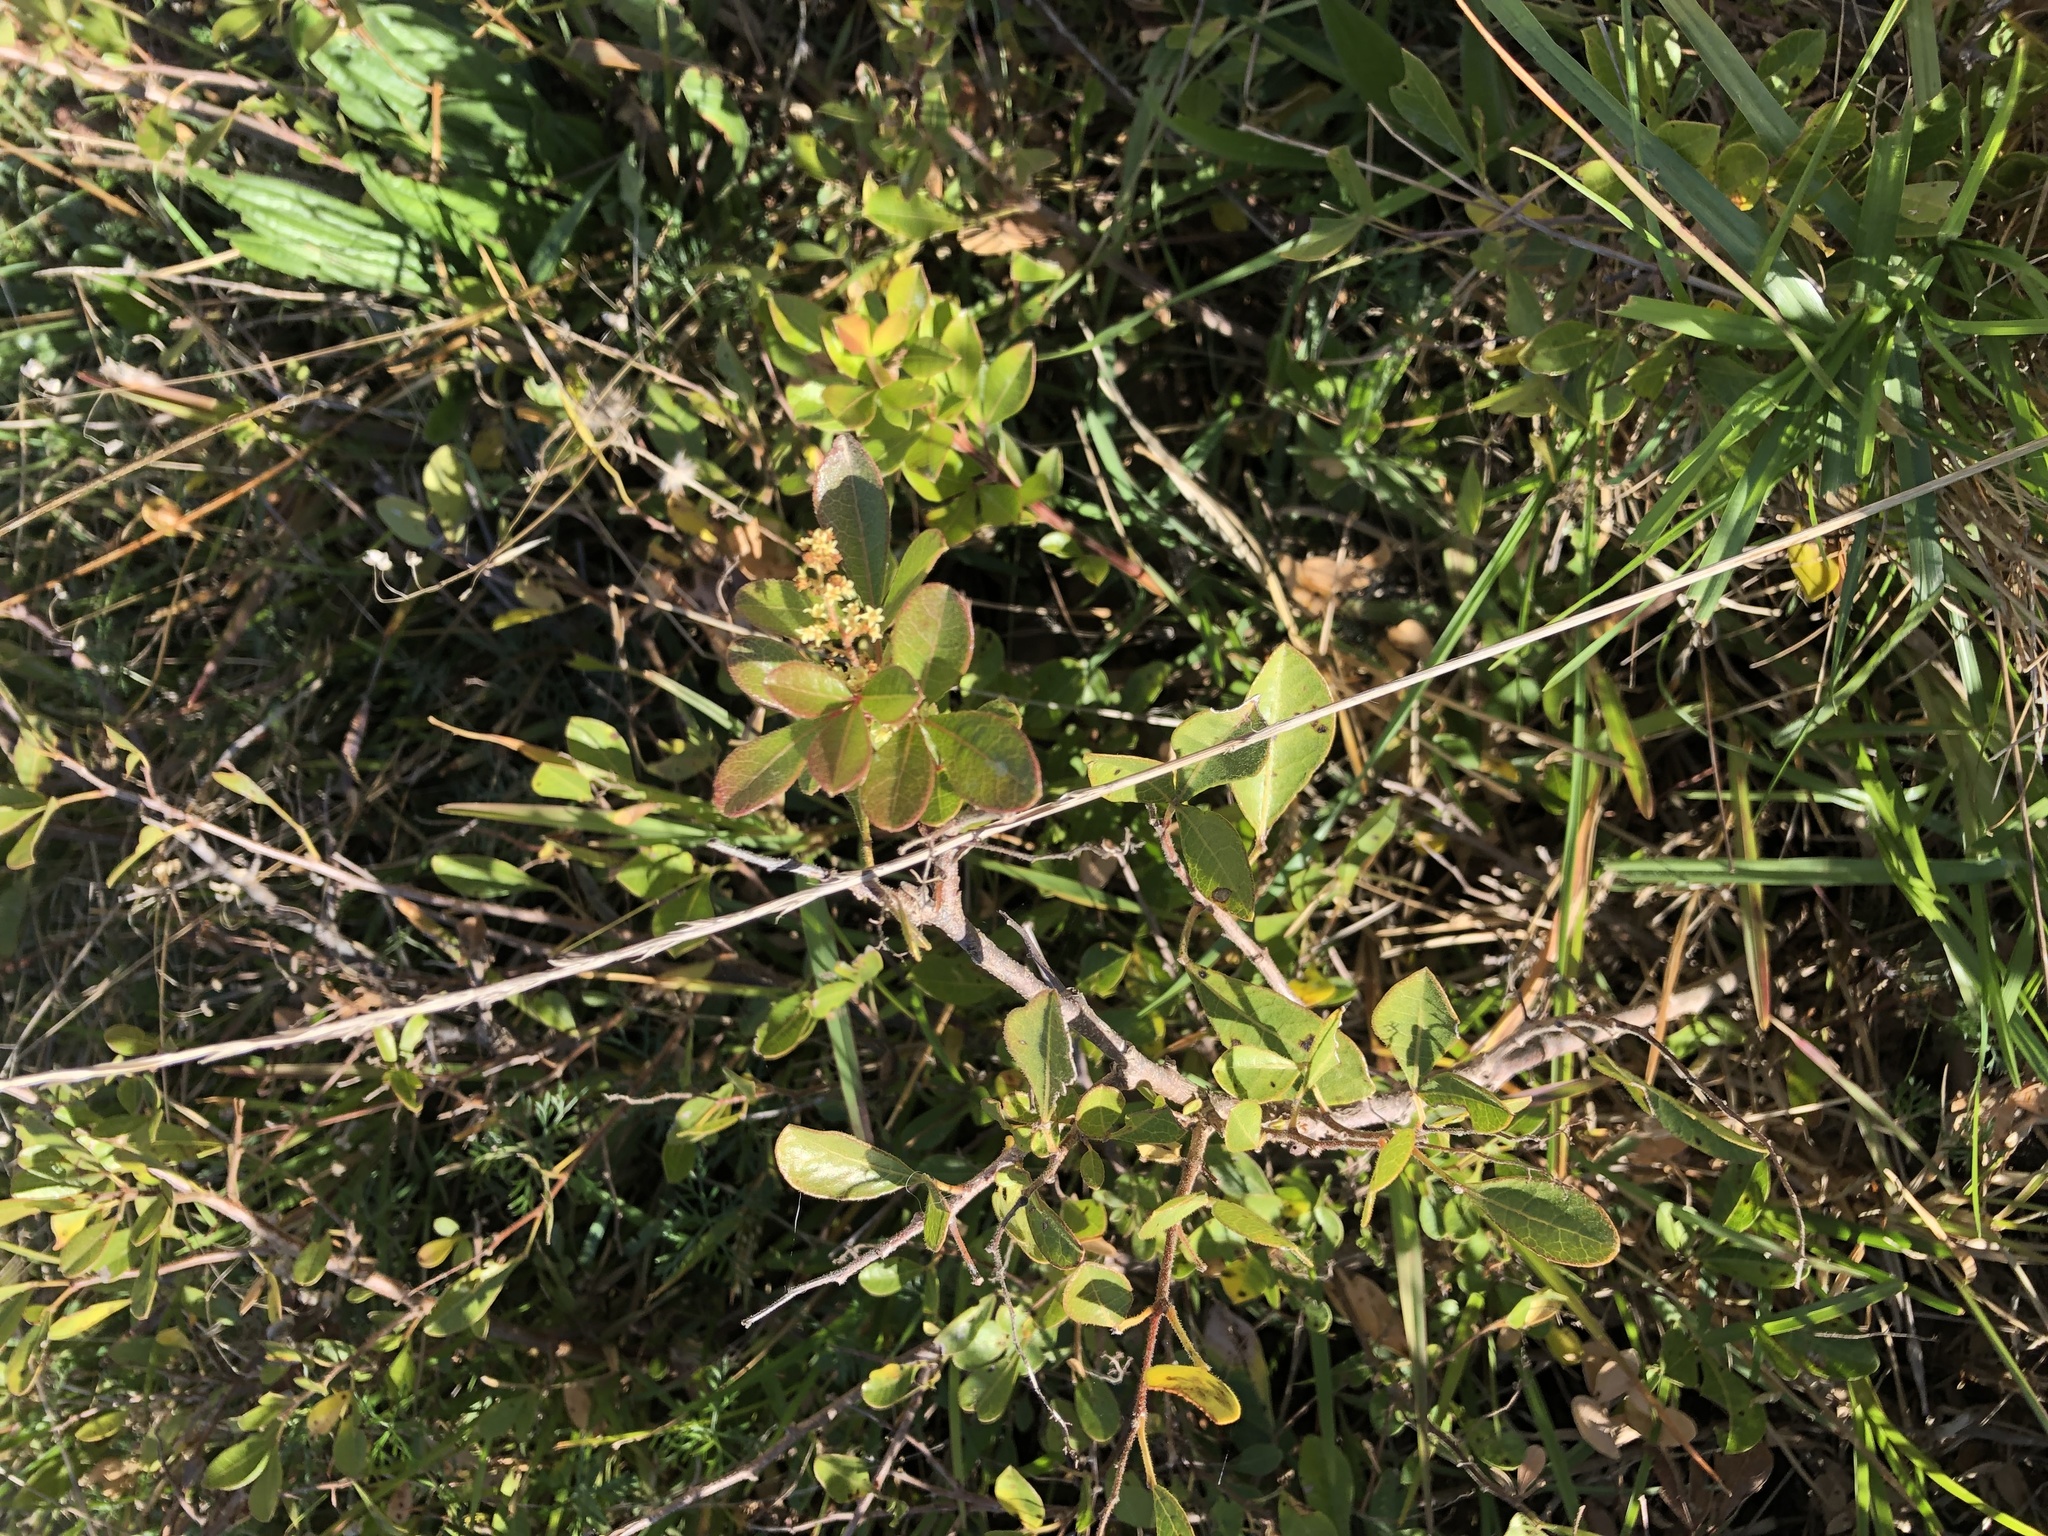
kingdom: Plantae
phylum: Tracheophyta
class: Magnoliopsida
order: Sapindales
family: Anacardiaceae
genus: Searsia
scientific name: Searsia laevigata
